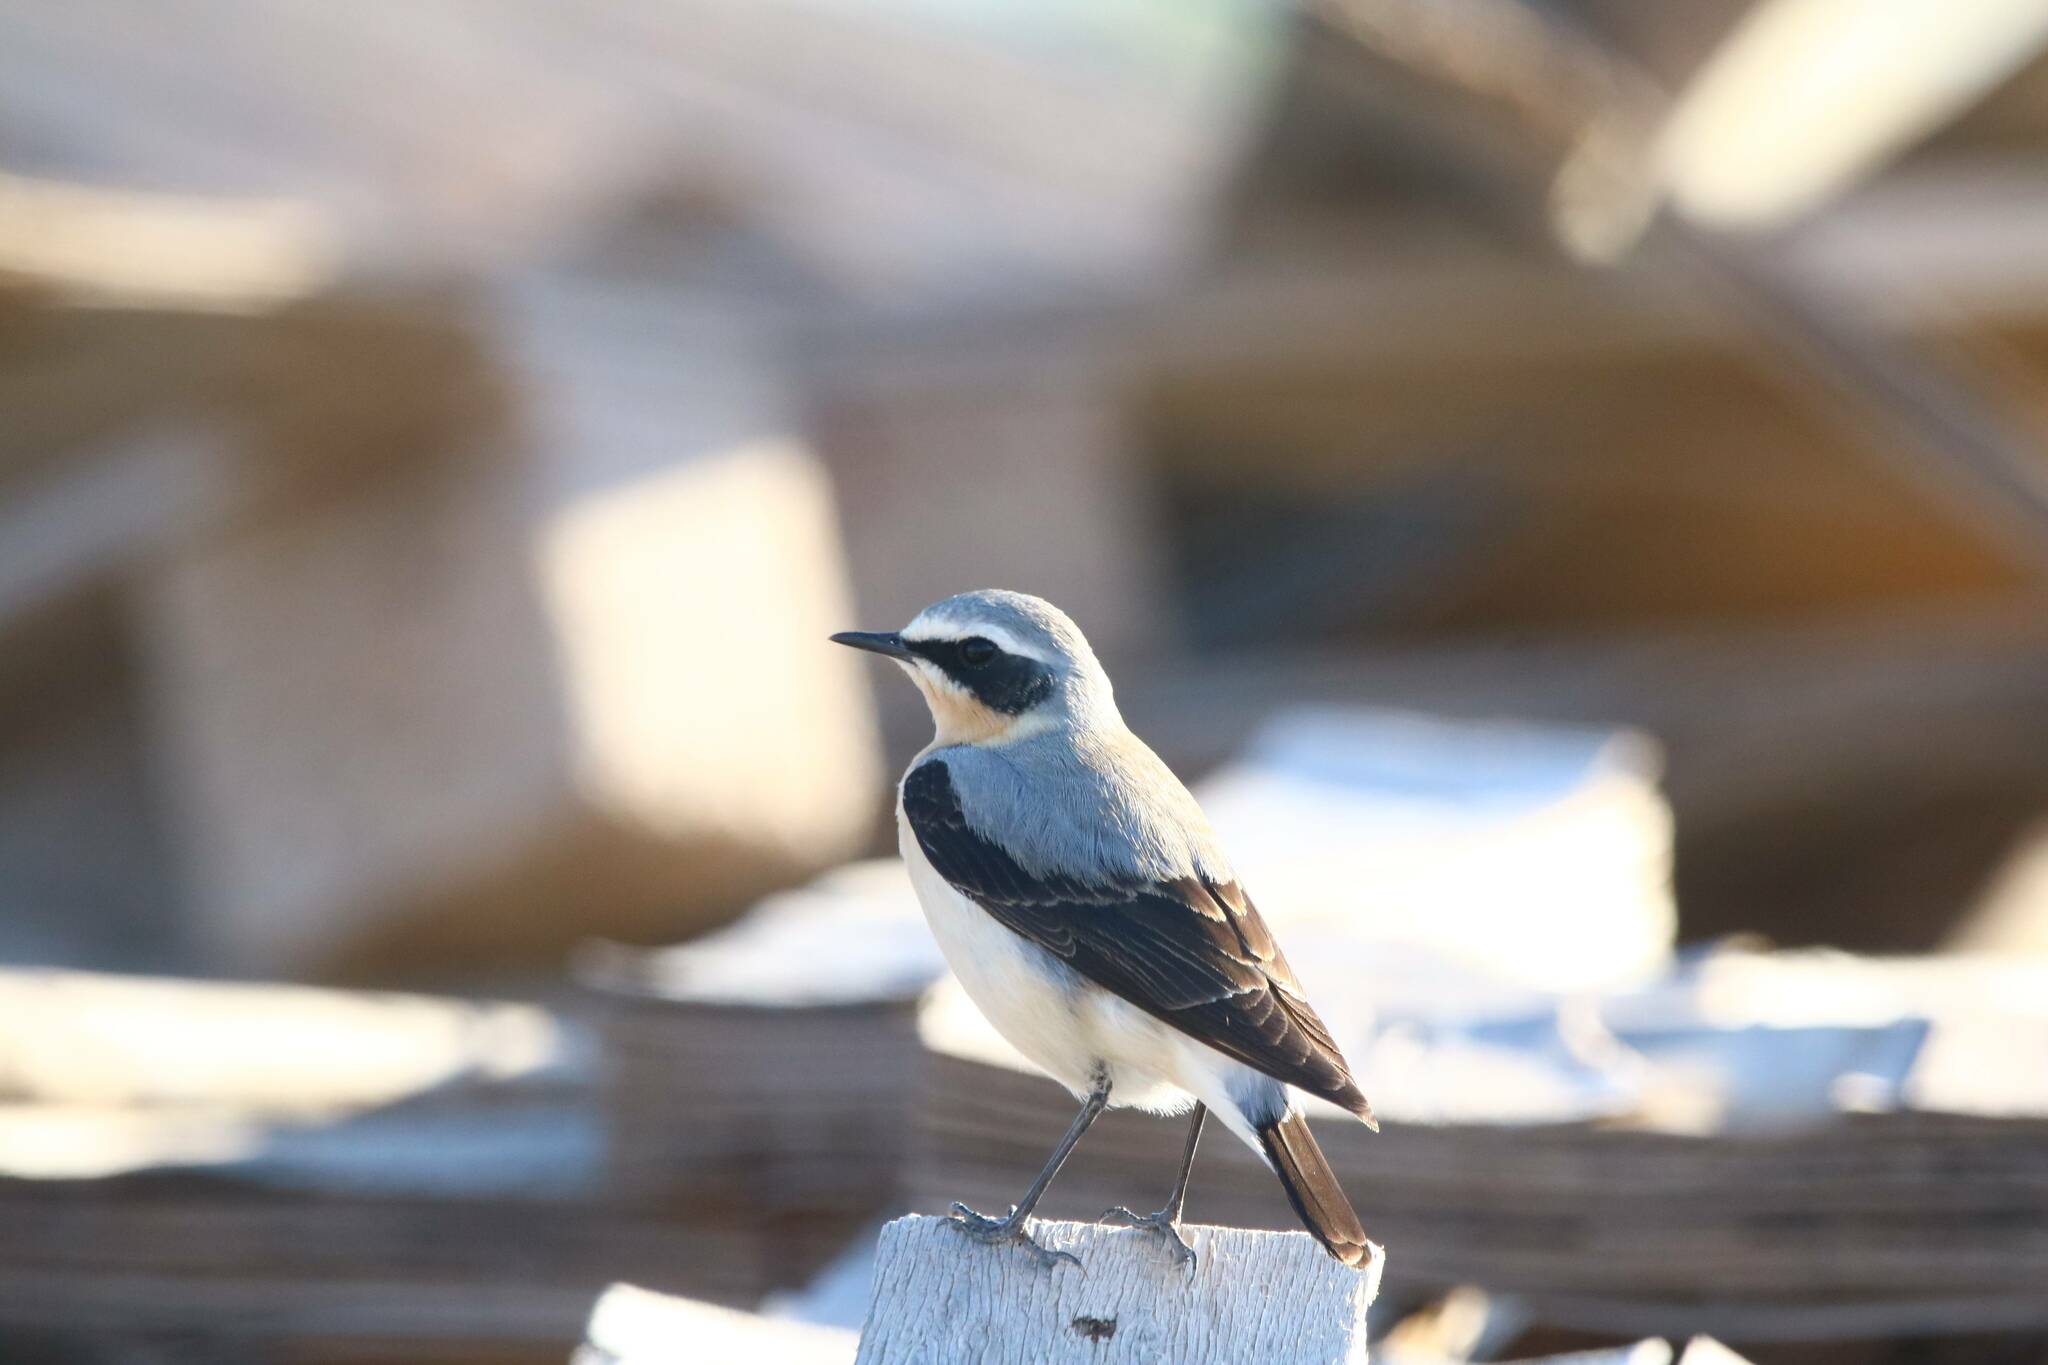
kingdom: Animalia
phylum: Chordata
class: Aves
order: Passeriformes
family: Muscicapidae
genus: Oenanthe
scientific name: Oenanthe oenanthe
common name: Northern wheatear
